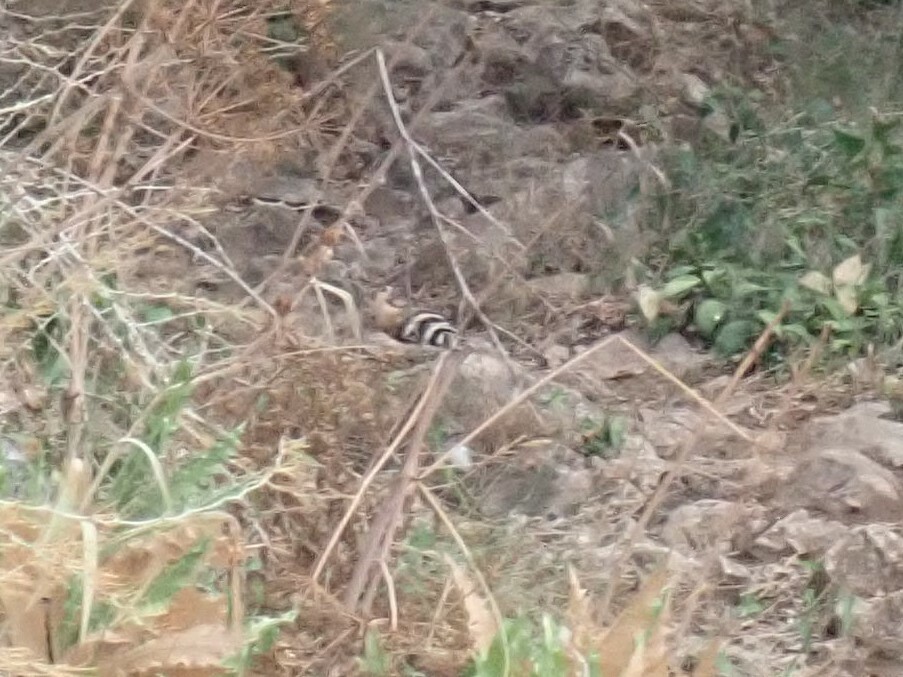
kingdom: Animalia
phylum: Chordata
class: Aves
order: Bucerotiformes
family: Upupidae
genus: Upupa
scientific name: Upupa epops
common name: Eurasian hoopoe
